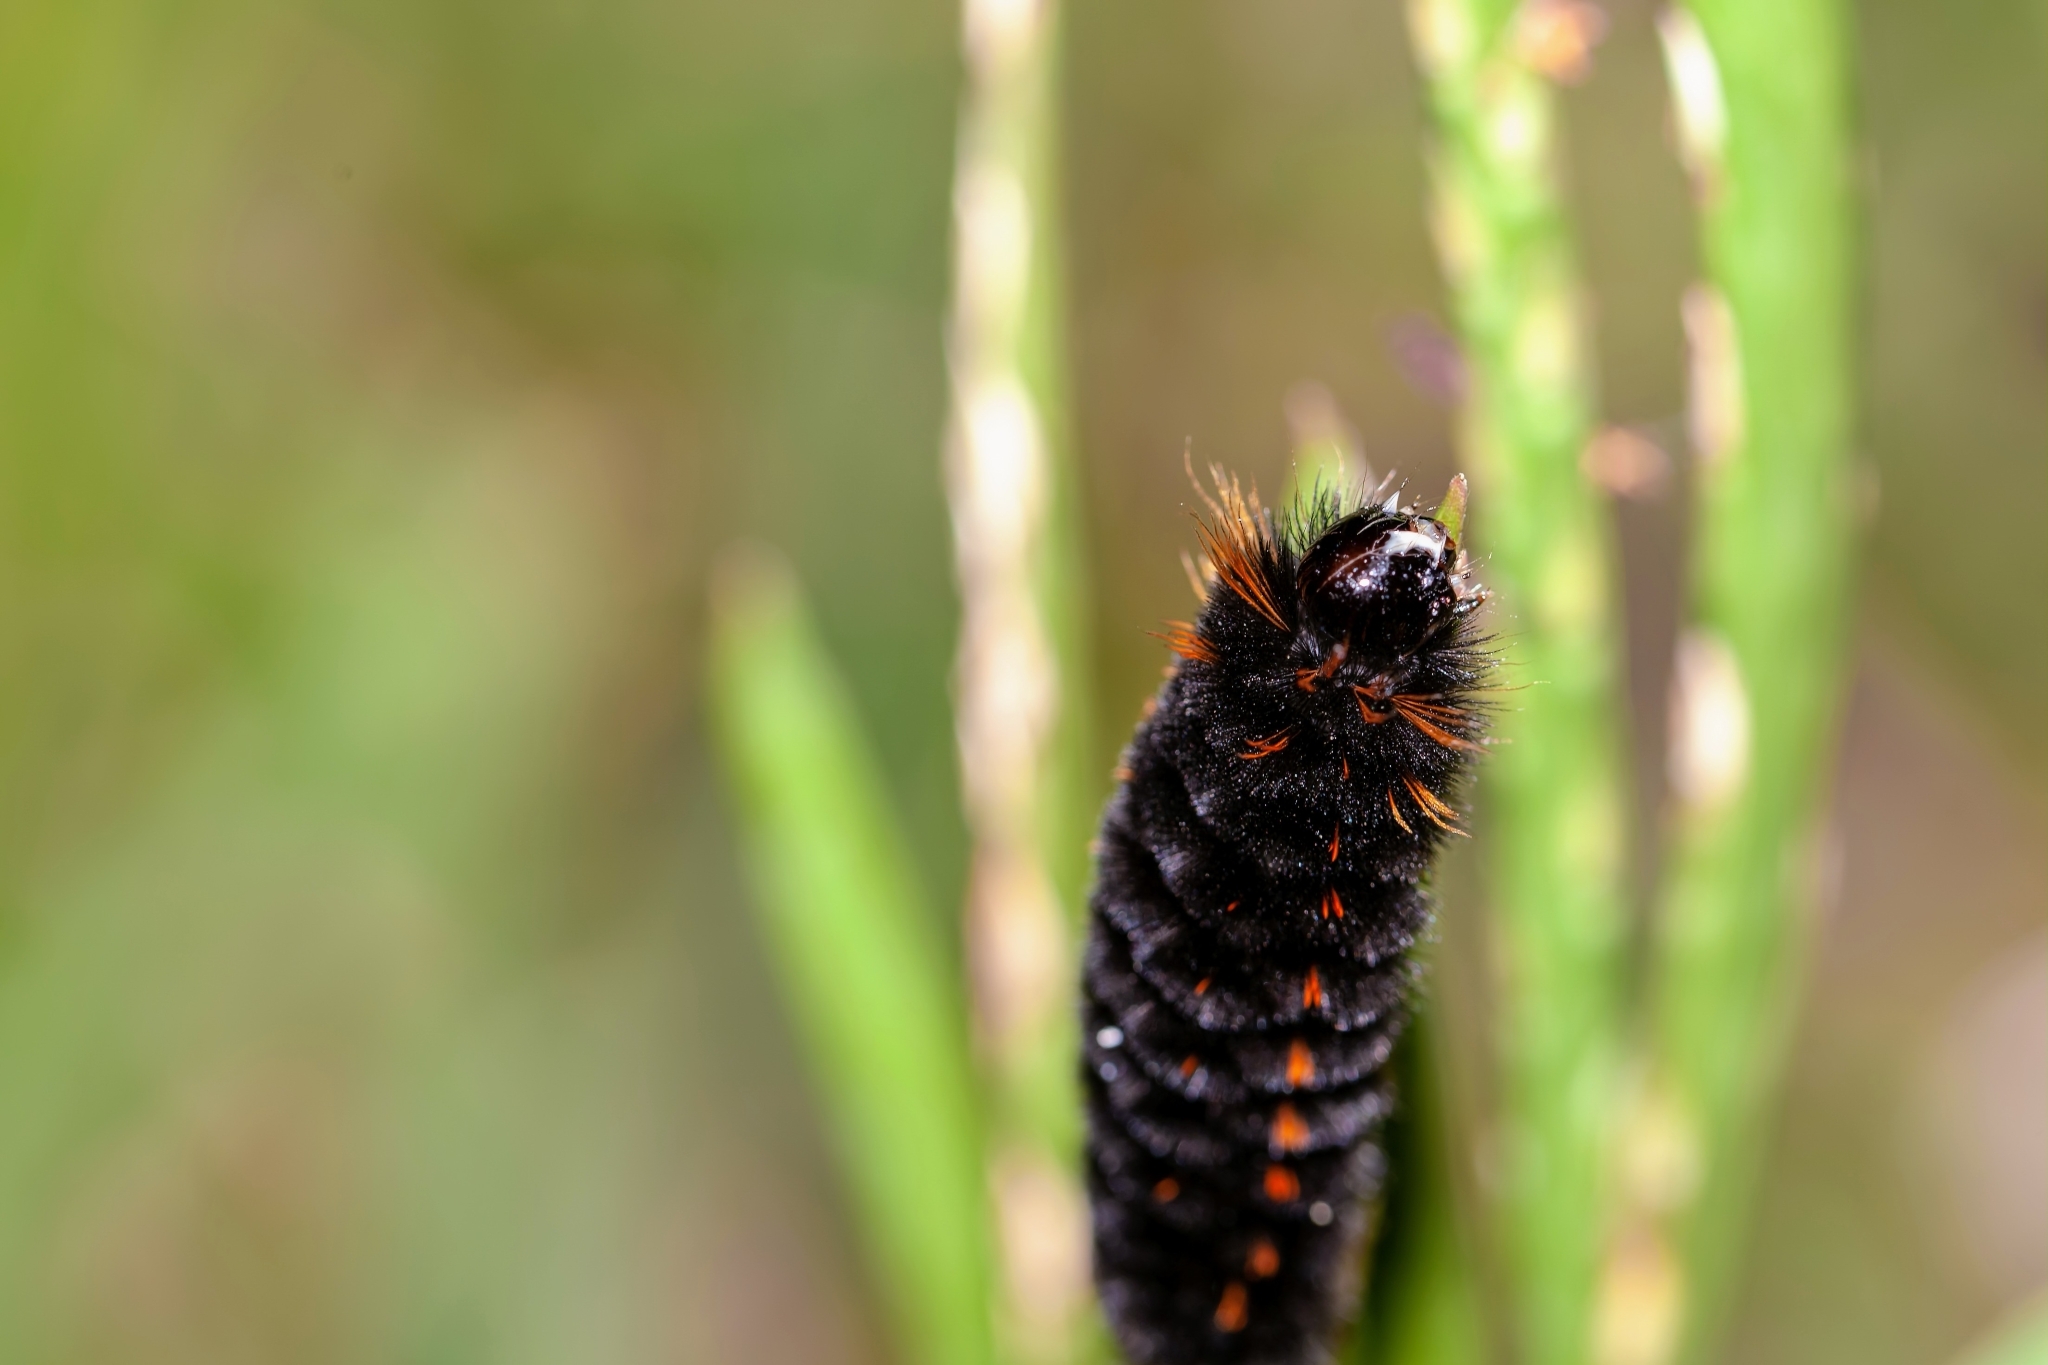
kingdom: Animalia
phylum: Arthropoda
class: Insecta
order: Lepidoptera
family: Erebidae
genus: Spilosoma
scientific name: Spilosoma congrua
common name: Agreeable tiger moth
